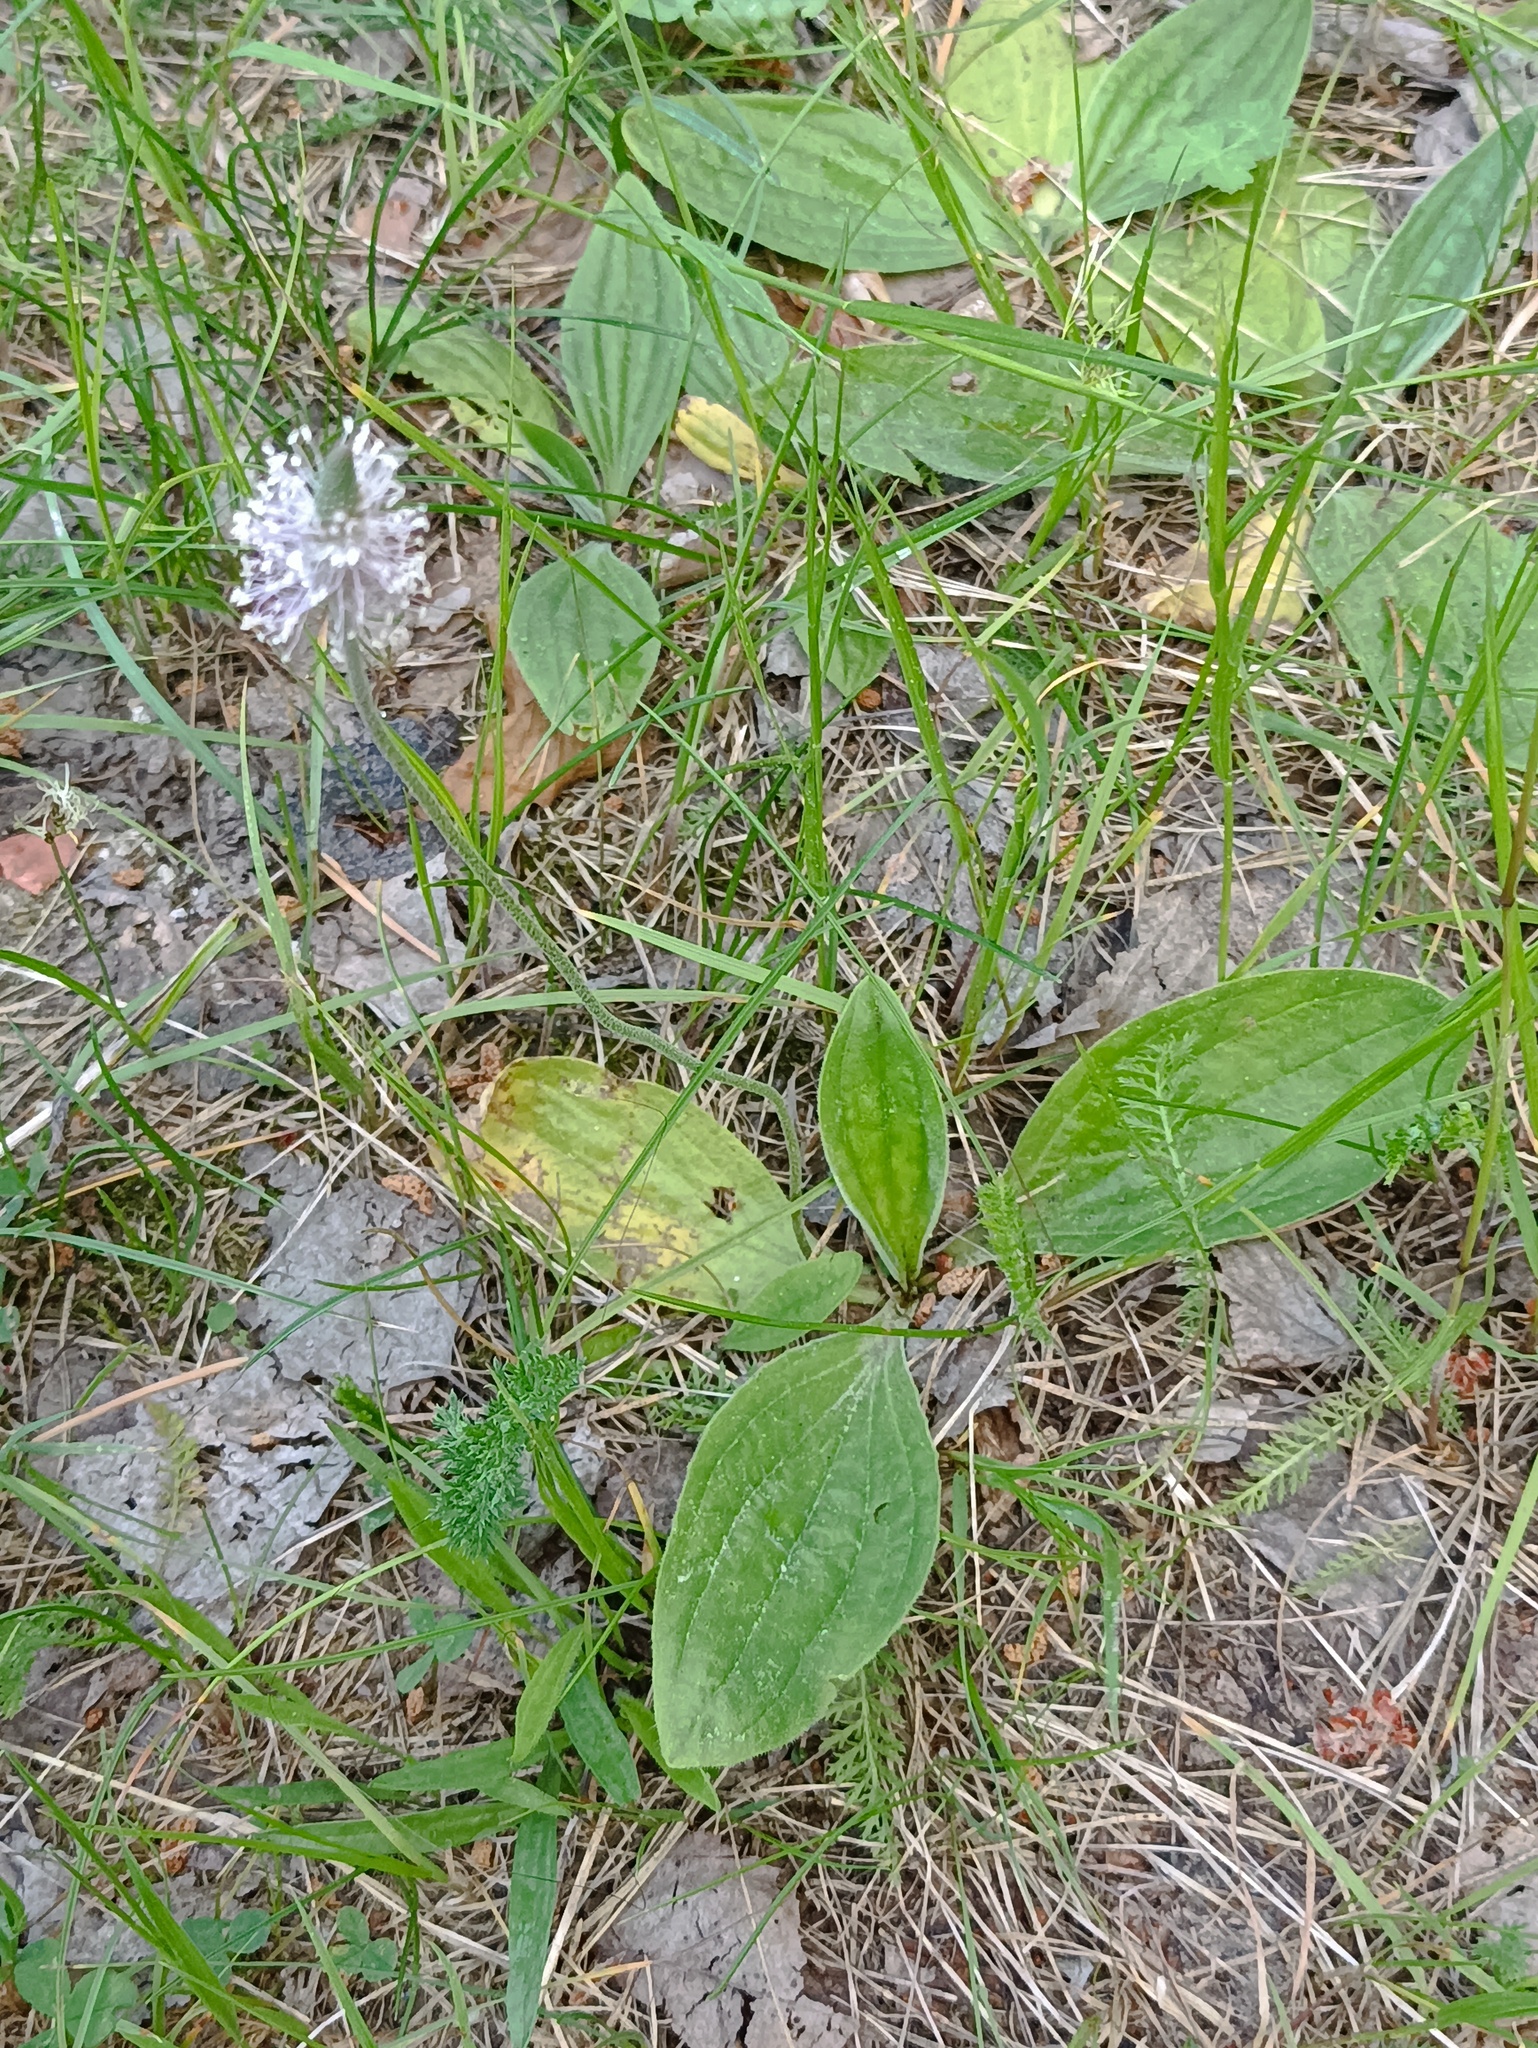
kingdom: Plantae
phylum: Tracheophyta
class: Magnoliopsida
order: Lamiales
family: Plantaginaceae
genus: Plantago
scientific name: Plantago media
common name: Hoary plantain
